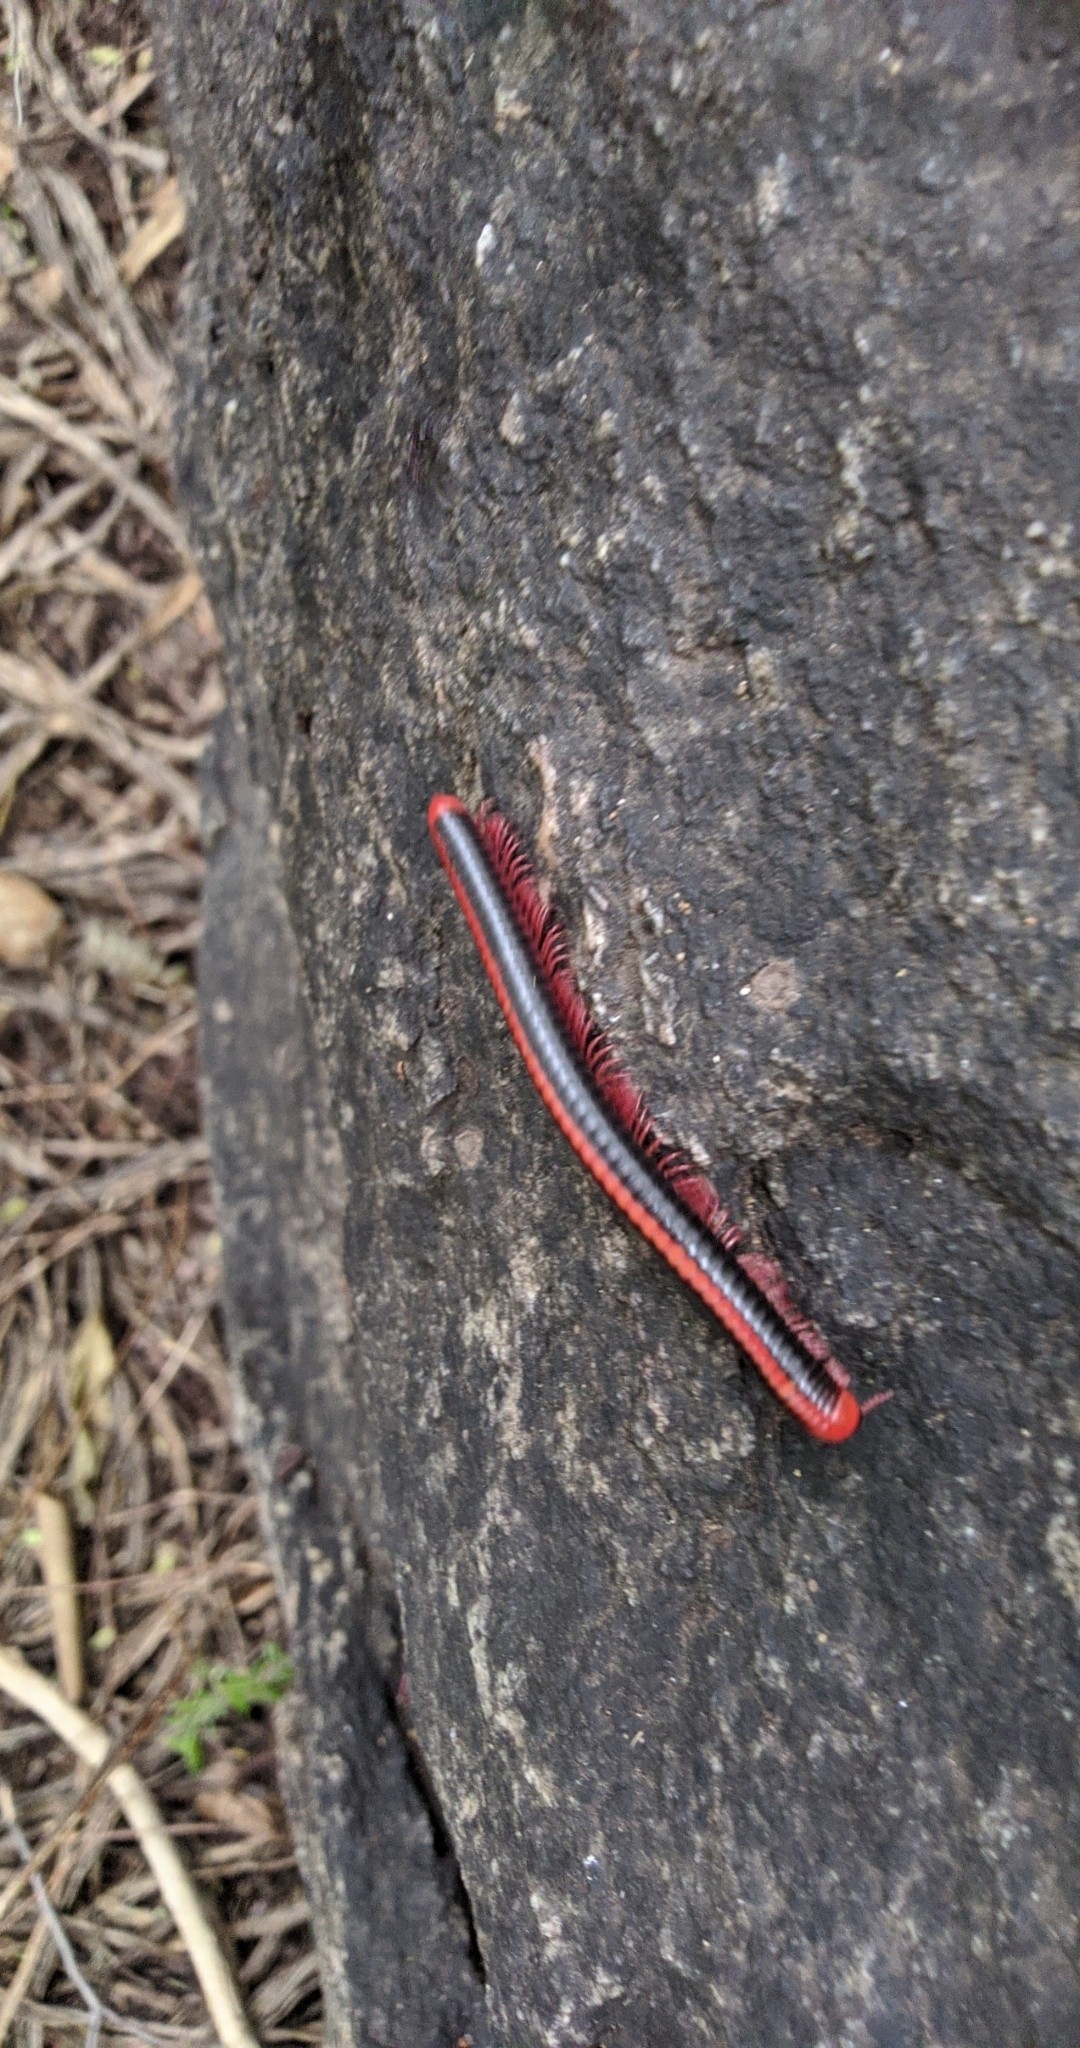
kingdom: Animalia
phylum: Arthropoda
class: Diplopoda
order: Spirobolida
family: Pachybolidae
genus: Xenobolus
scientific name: Xenobolus carnifex
